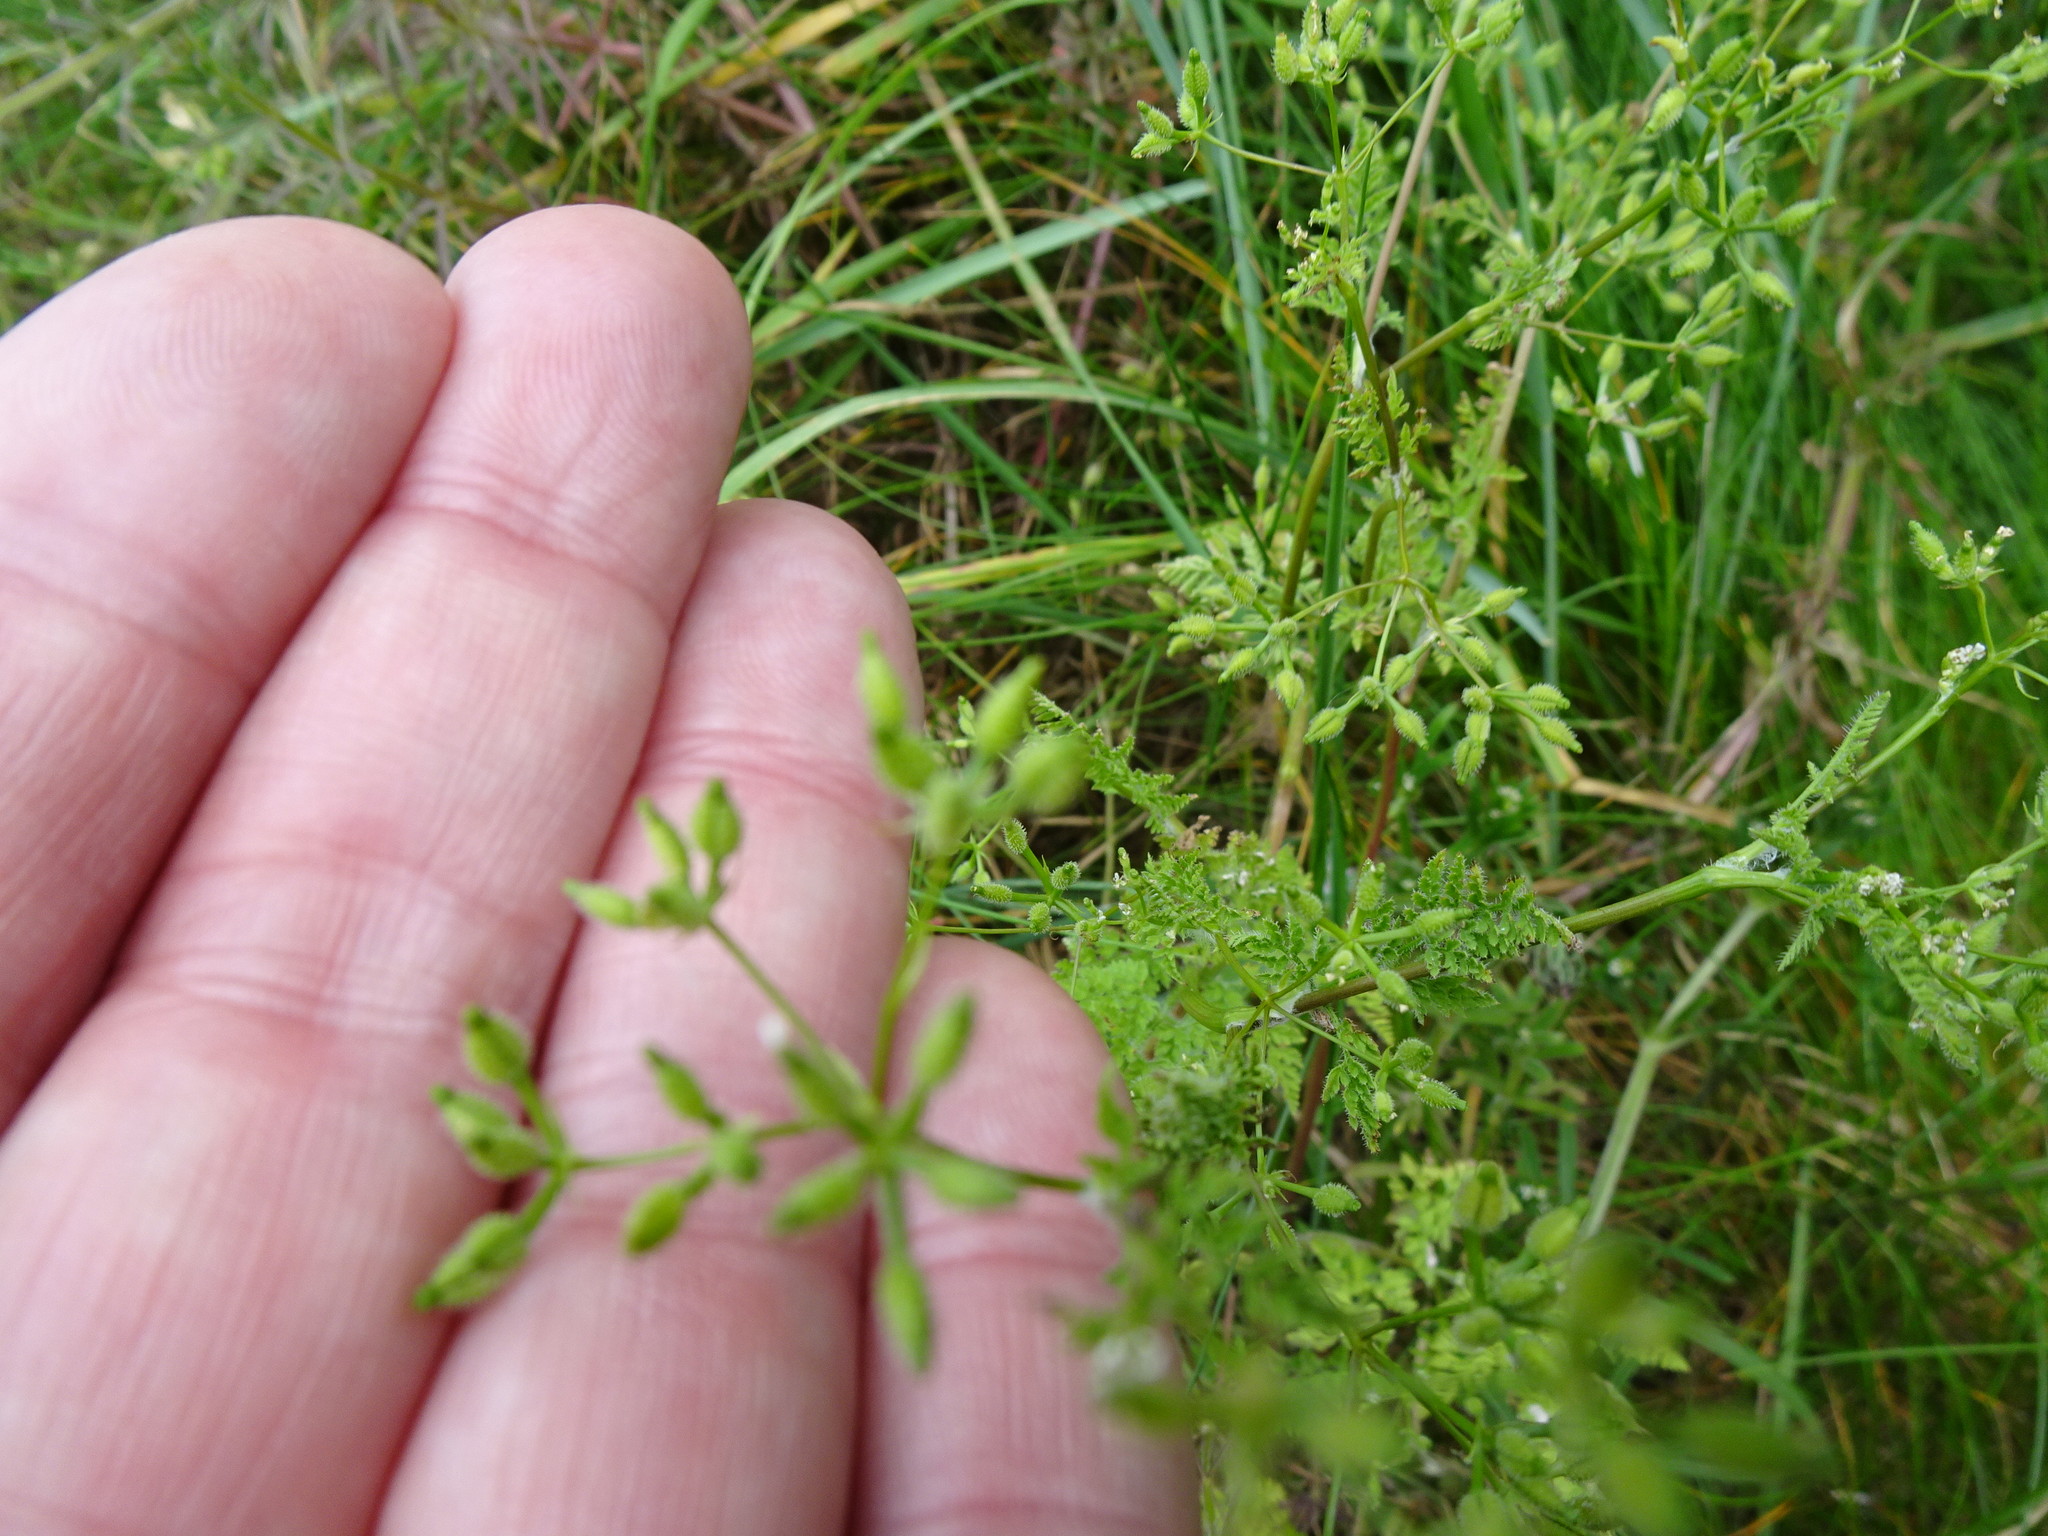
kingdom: Plantae
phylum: Tracheophyta
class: Magnoliopsida
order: Apiales
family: Apiaceae
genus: Anthriscus
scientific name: Anthriscus caucalis
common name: Bur chervil
